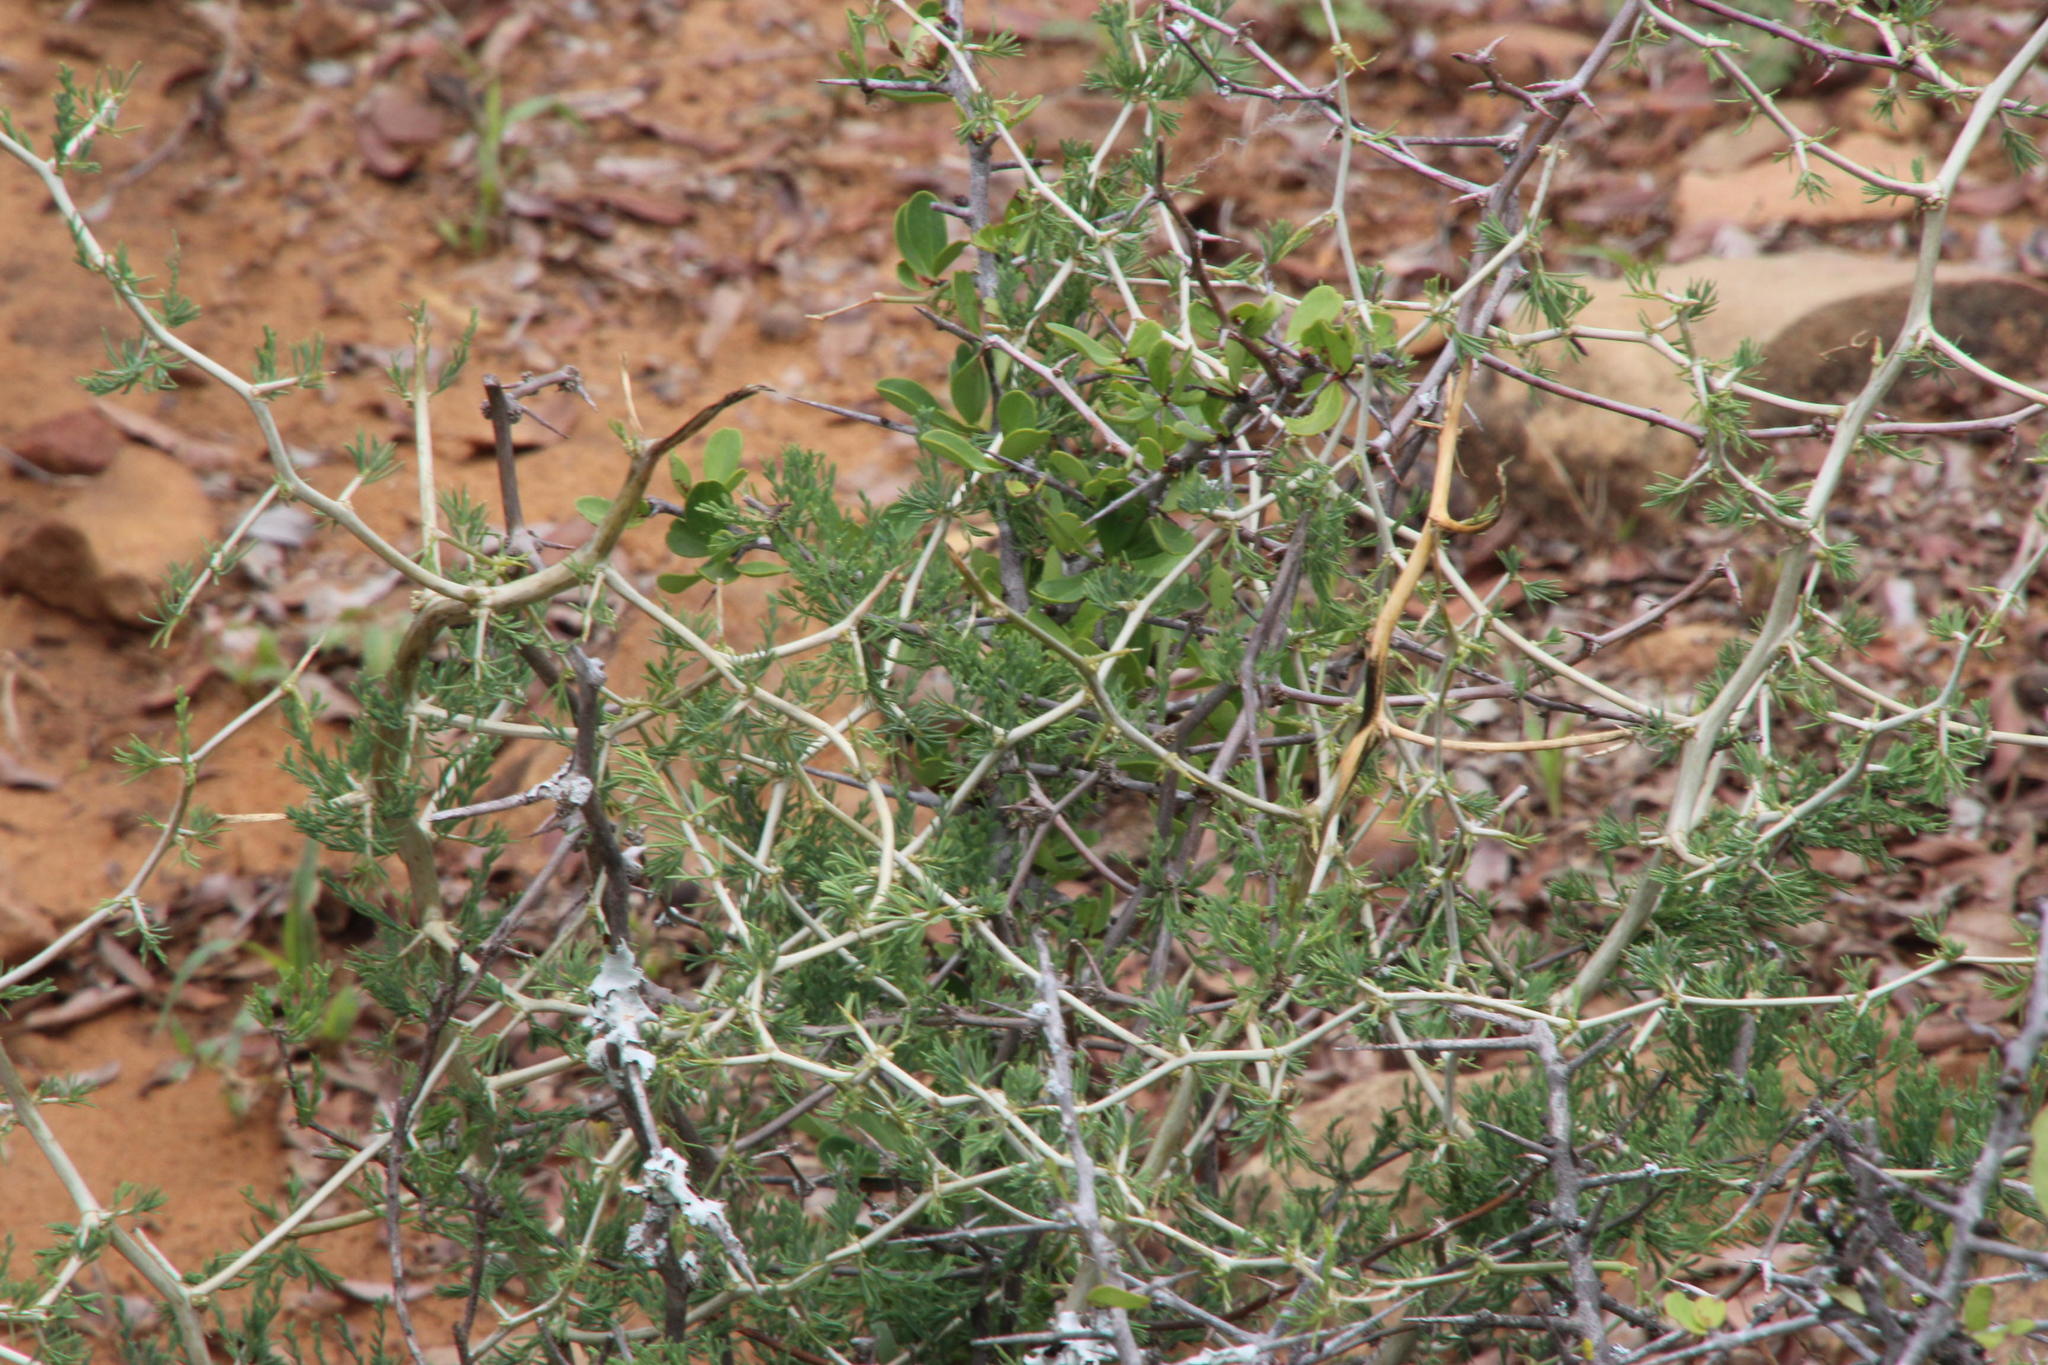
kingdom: Plantae
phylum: Tracheophyta
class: Liliopsida
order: Asparagales
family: Asparagaceae
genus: Asparagus
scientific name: Asparagus burchellii
